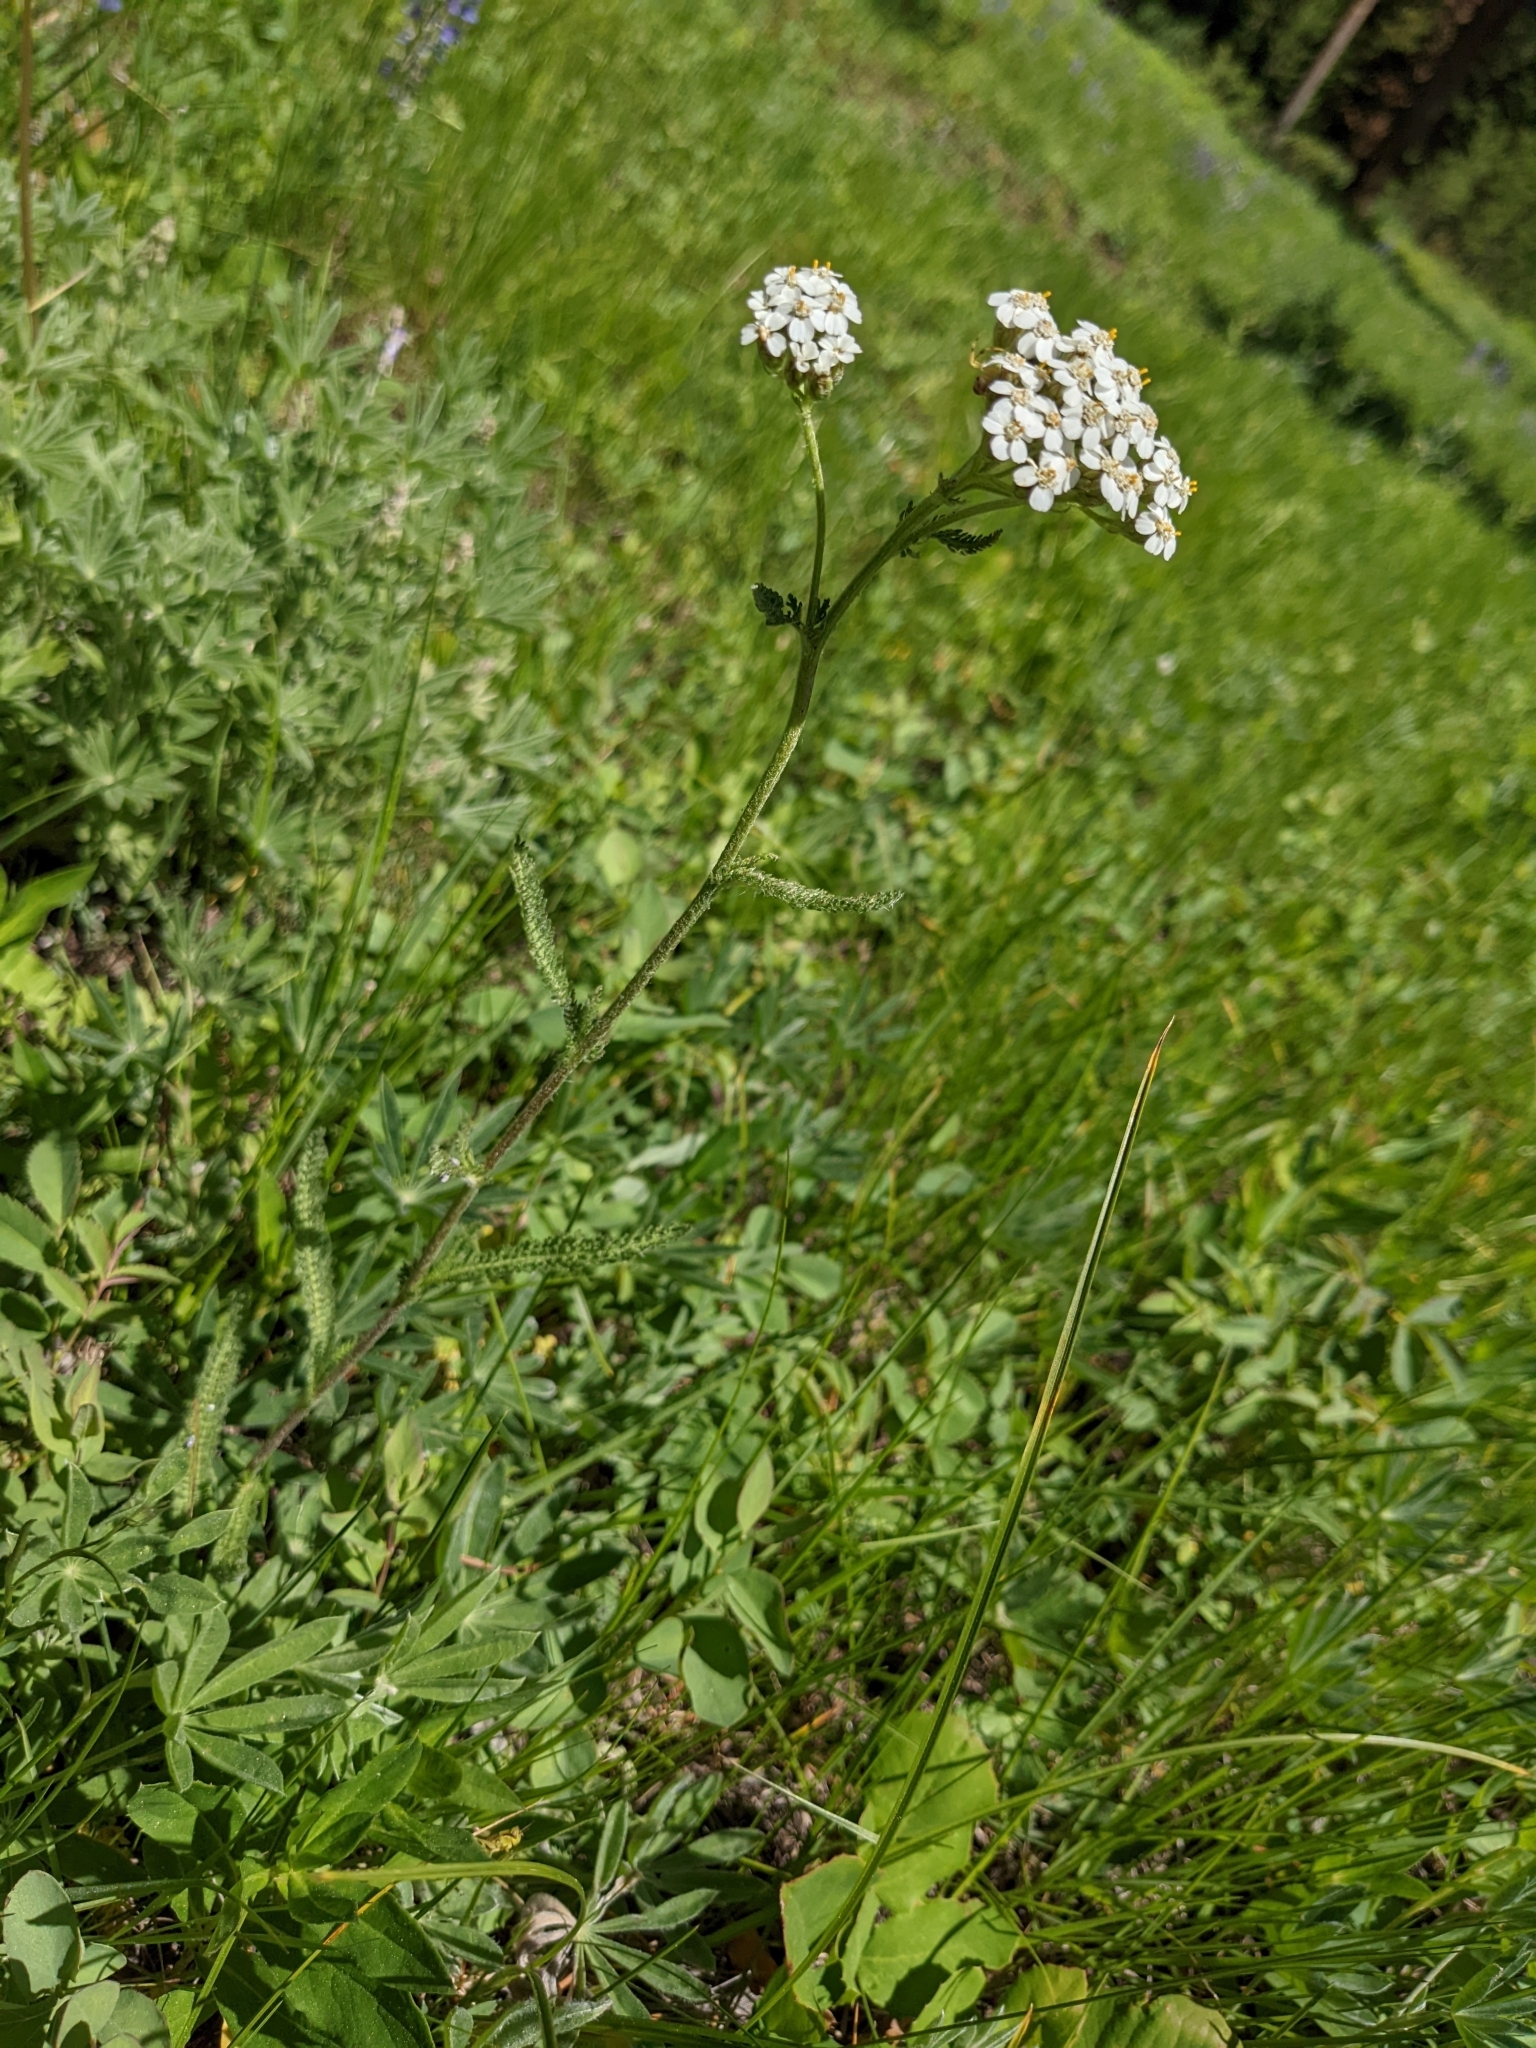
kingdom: Plantae
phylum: Tracheophyta
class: Magnoliopsida
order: Asterales
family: Asteraceae
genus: Achillea
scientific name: Achillea millefolium
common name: Yarrow
